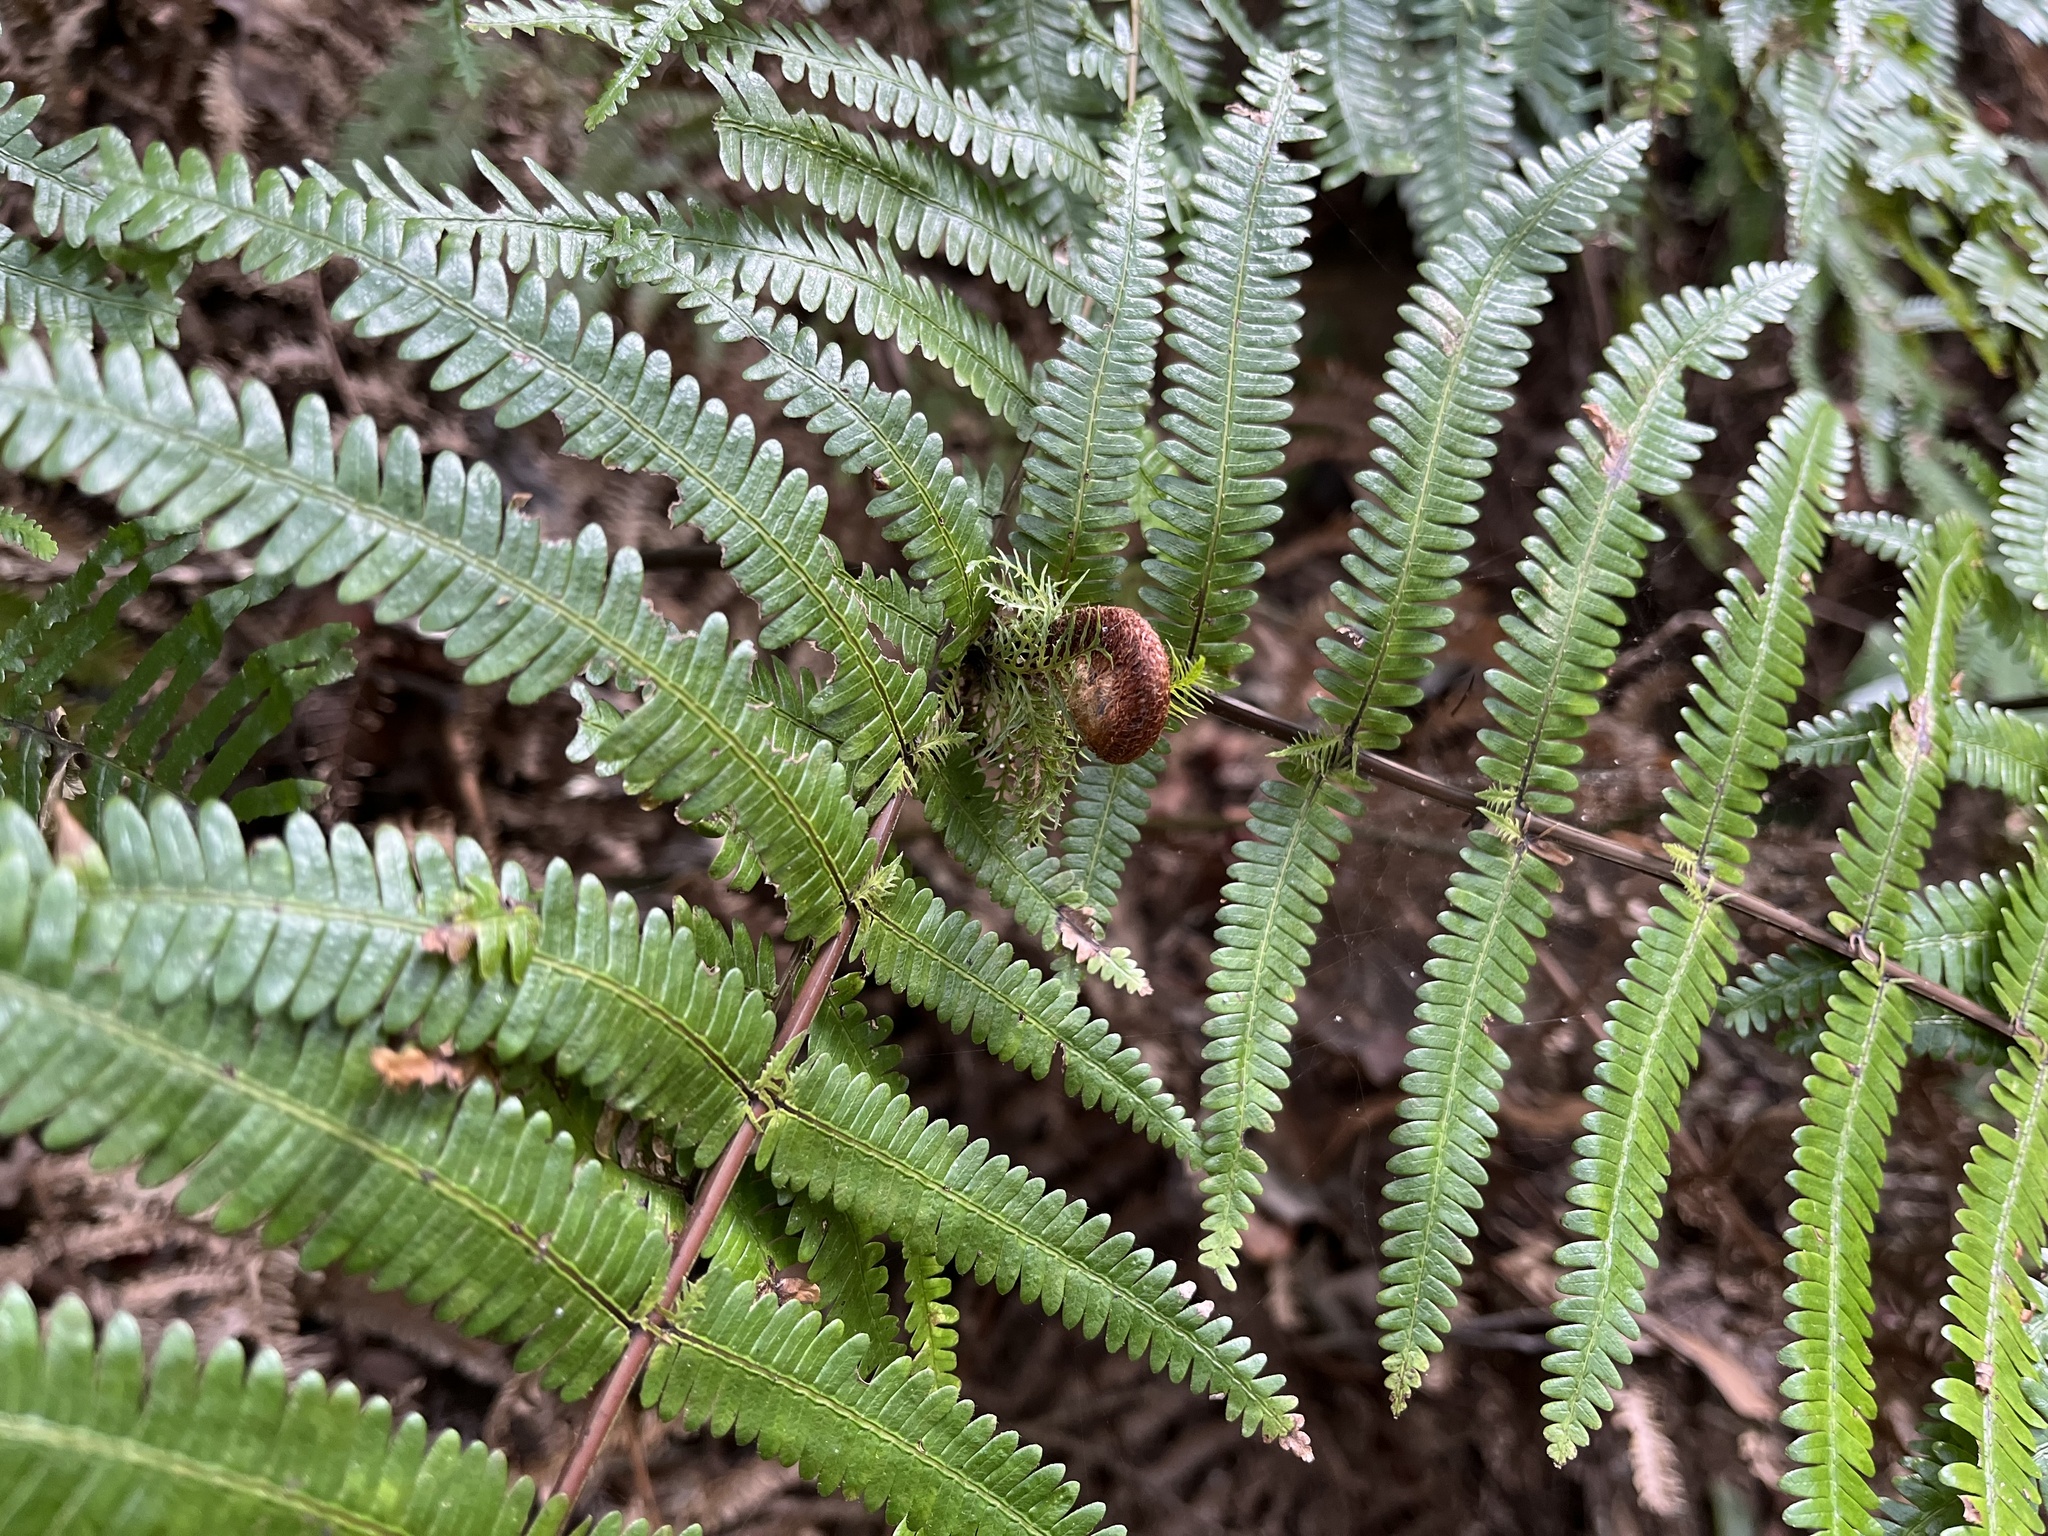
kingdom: Plantae
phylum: Tracheophyta
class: Polypodiopsida
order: Gleicheniales
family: Gleicheniaceae
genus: Diplopterygium
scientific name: Diplopterygium glaucum
